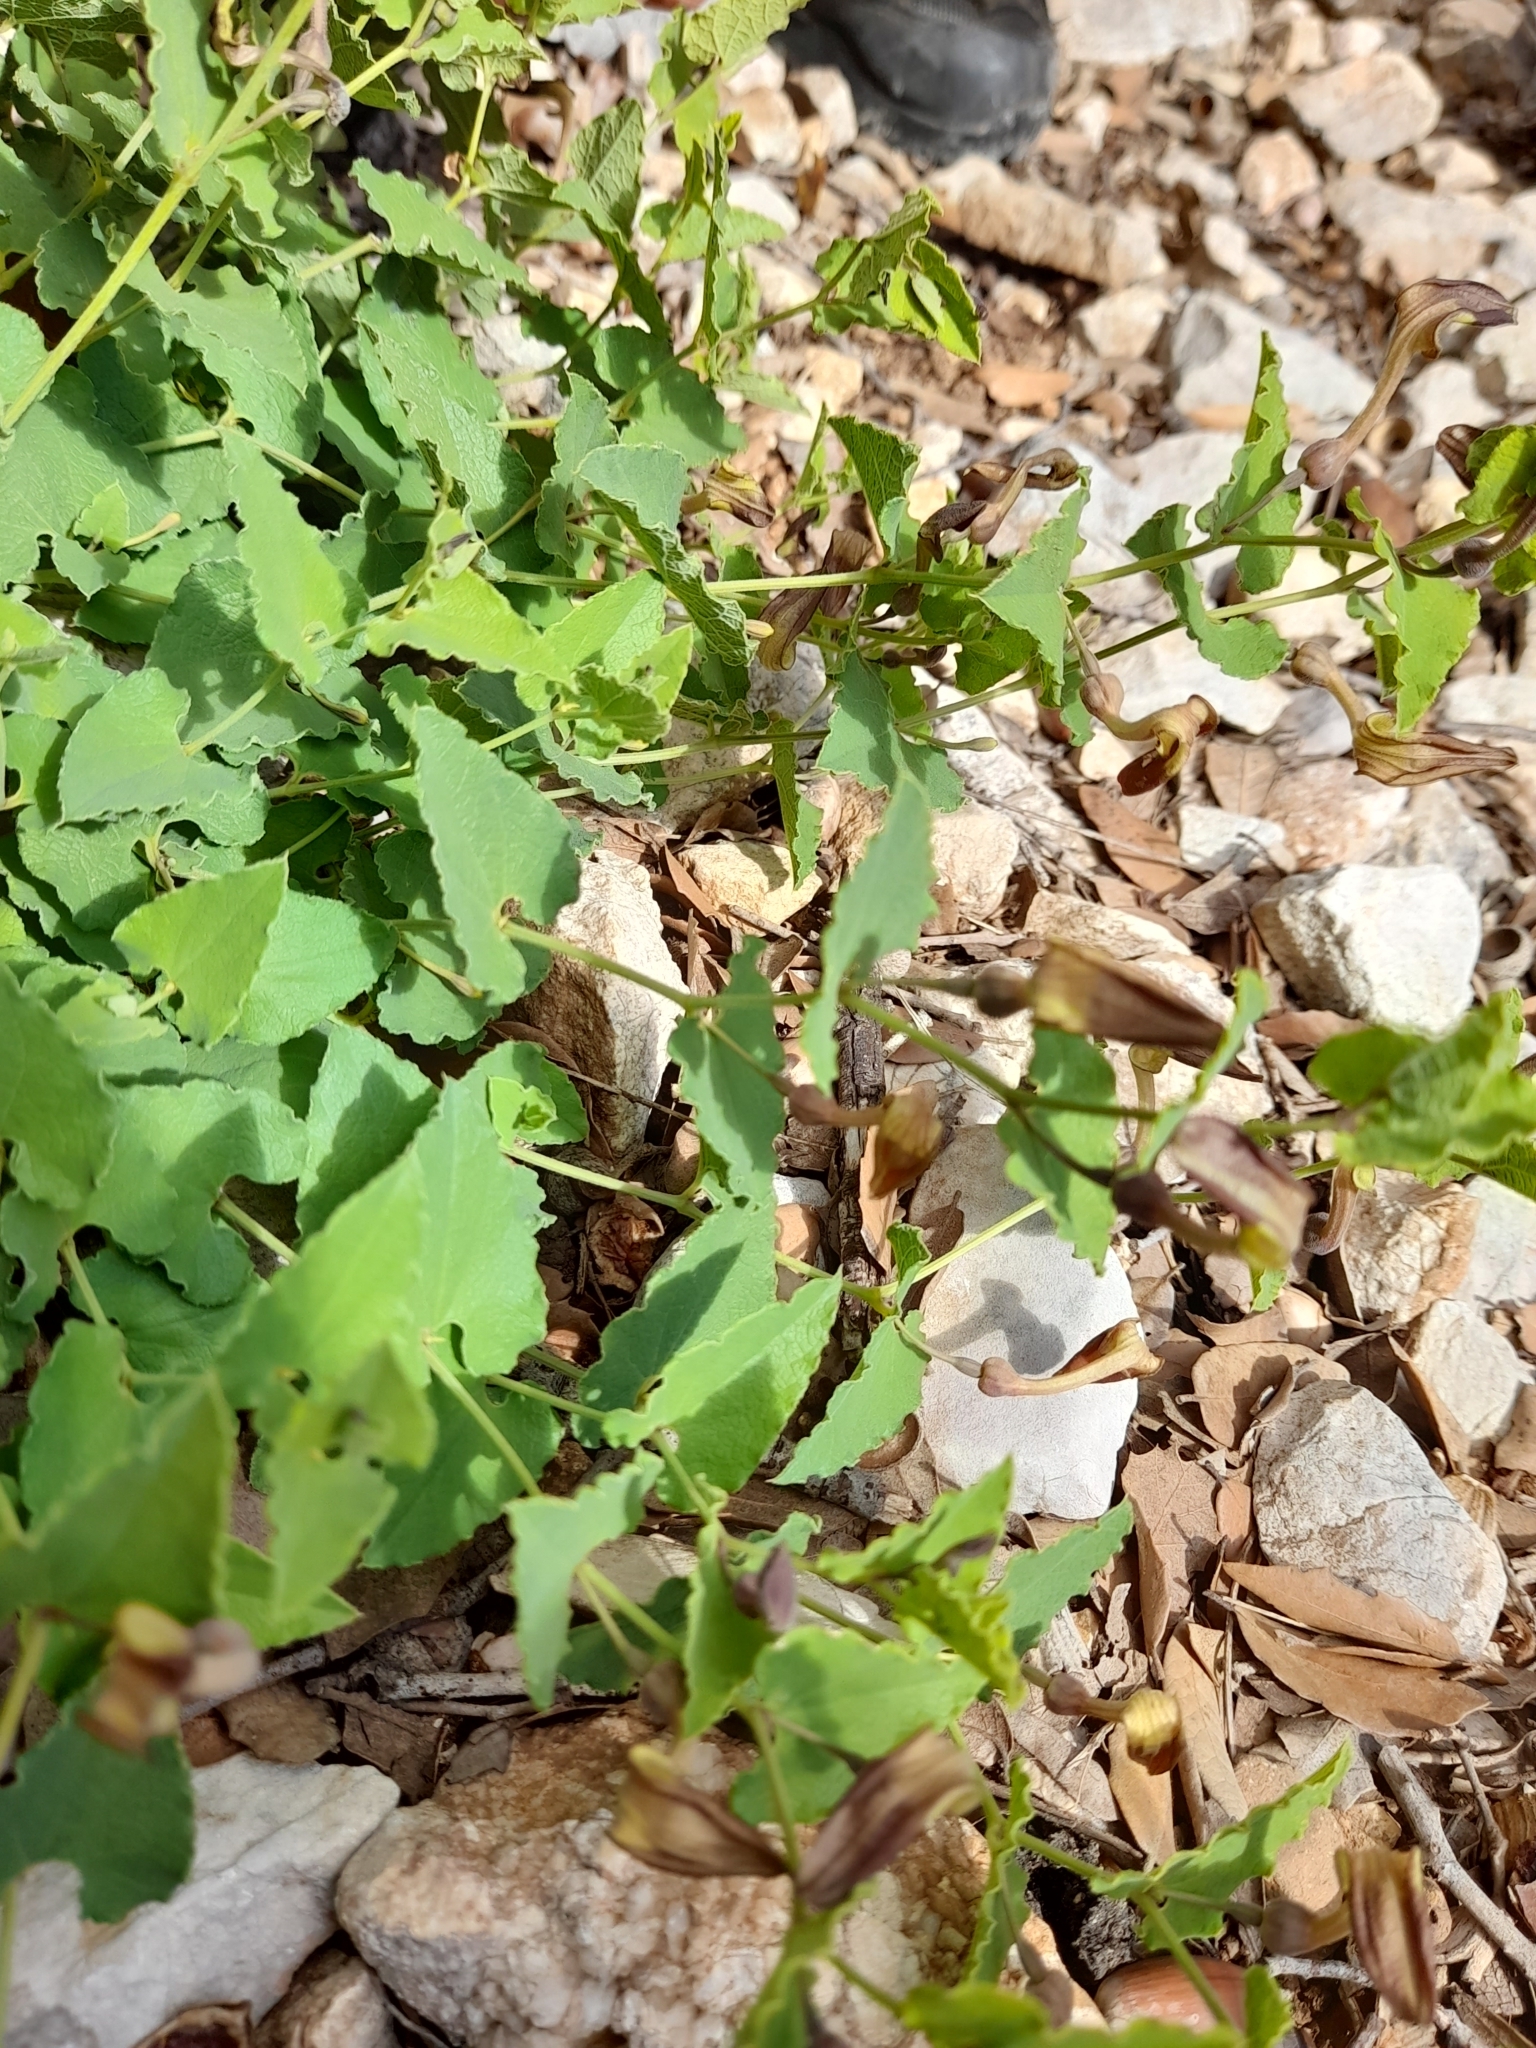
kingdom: Plantae
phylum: Tracheophyta
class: Magnoliopsida
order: Piperales
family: Aristolochiaceae
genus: Aristolochia
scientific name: Aristolochia pistolochia
